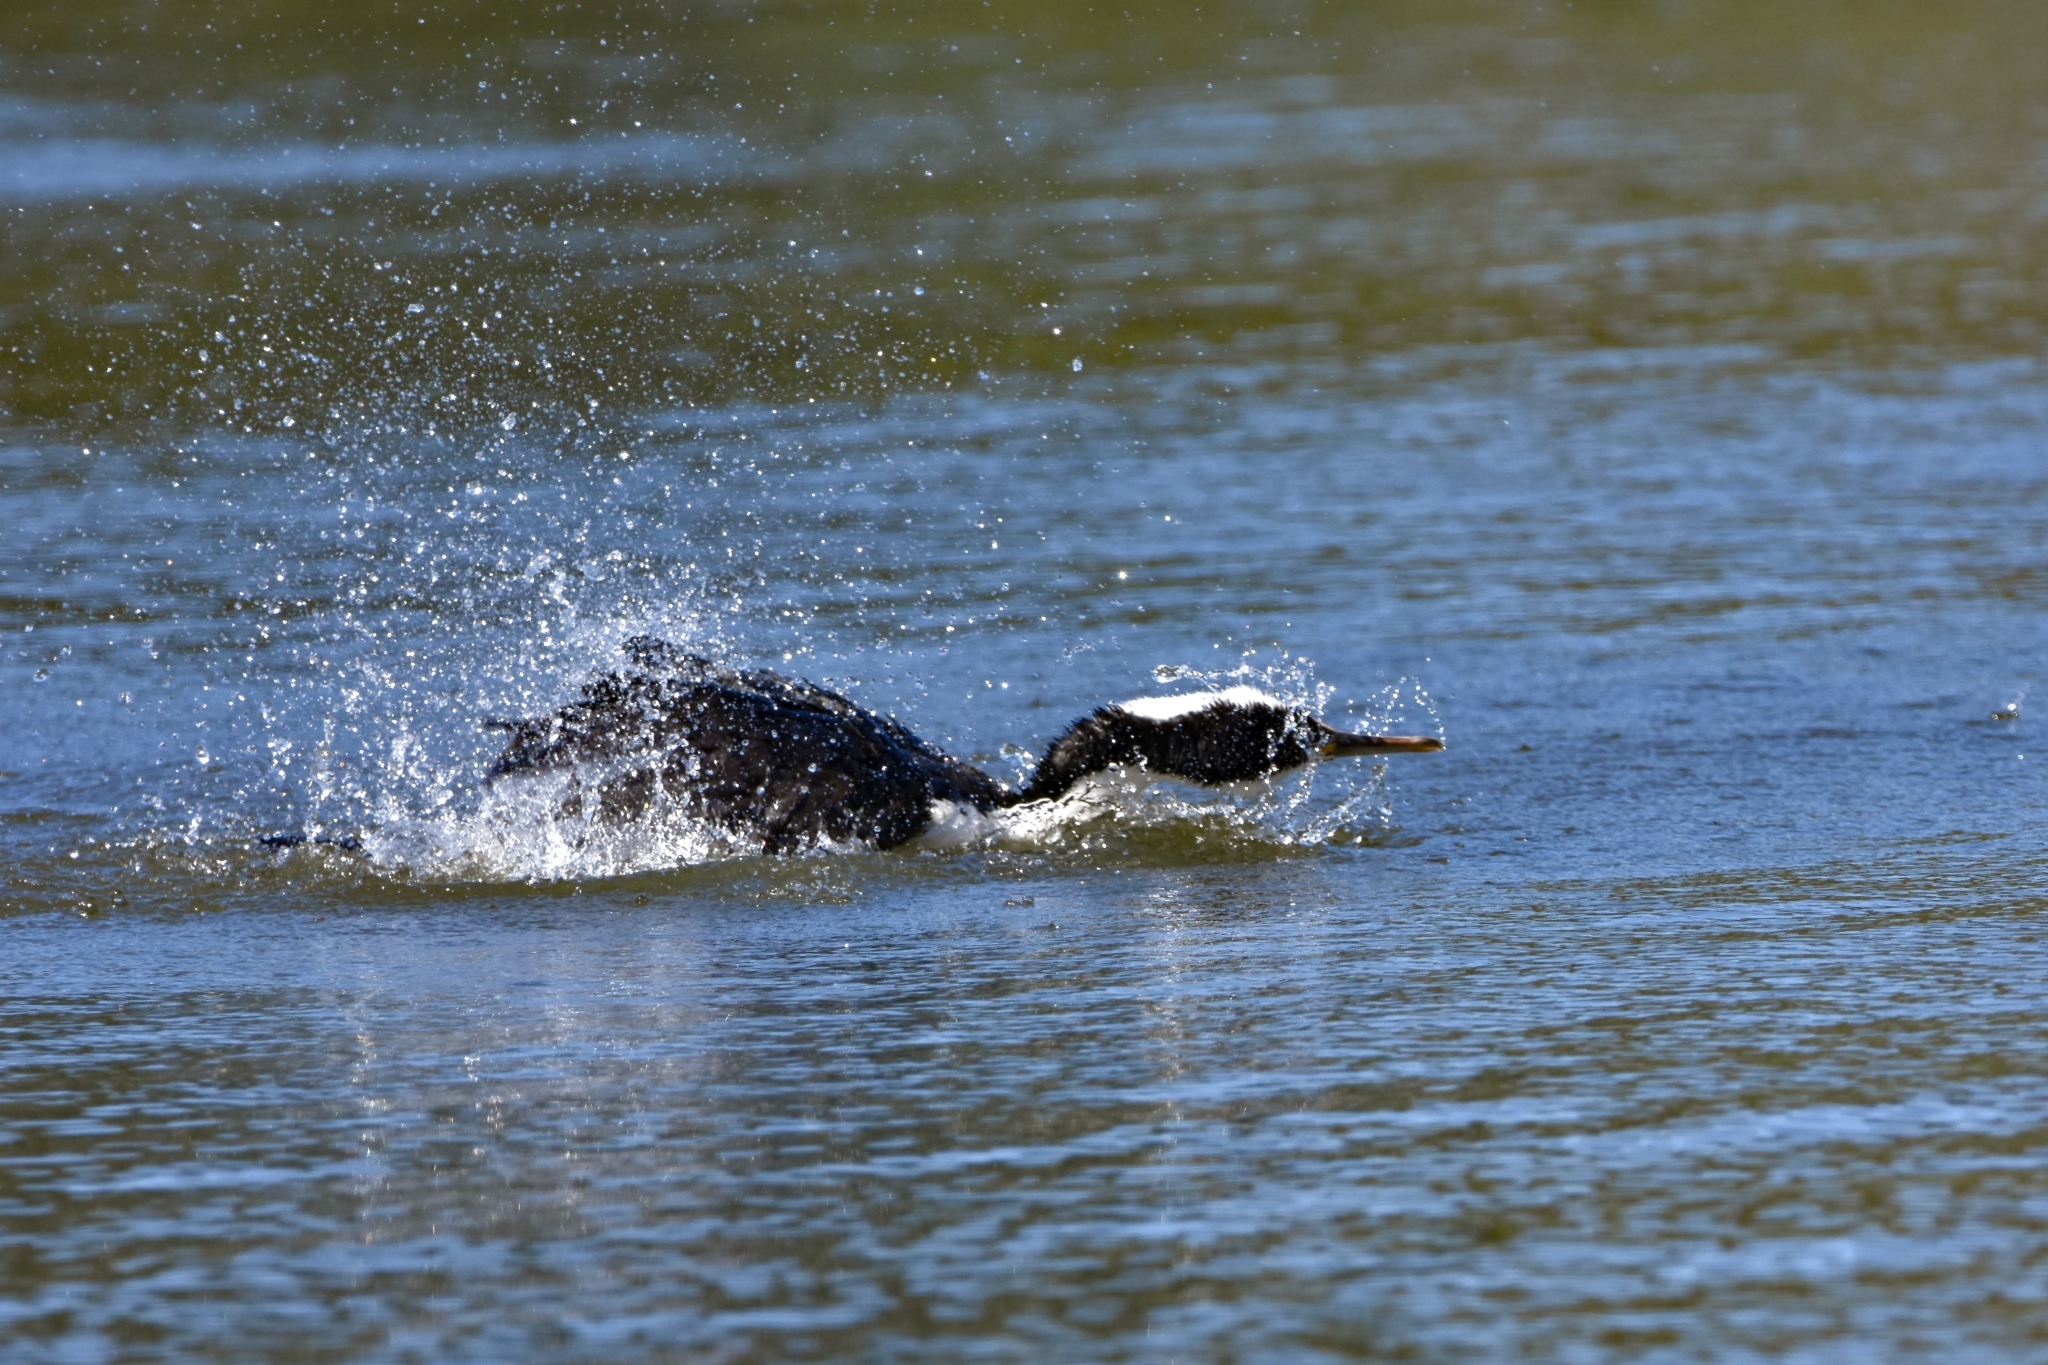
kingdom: Animalia
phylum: Chordata
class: Aves
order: Suliformes
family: Phalacrocoracidae
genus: Phalacrocorax
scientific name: Phalacrocorax varius
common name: Pied cormorant
